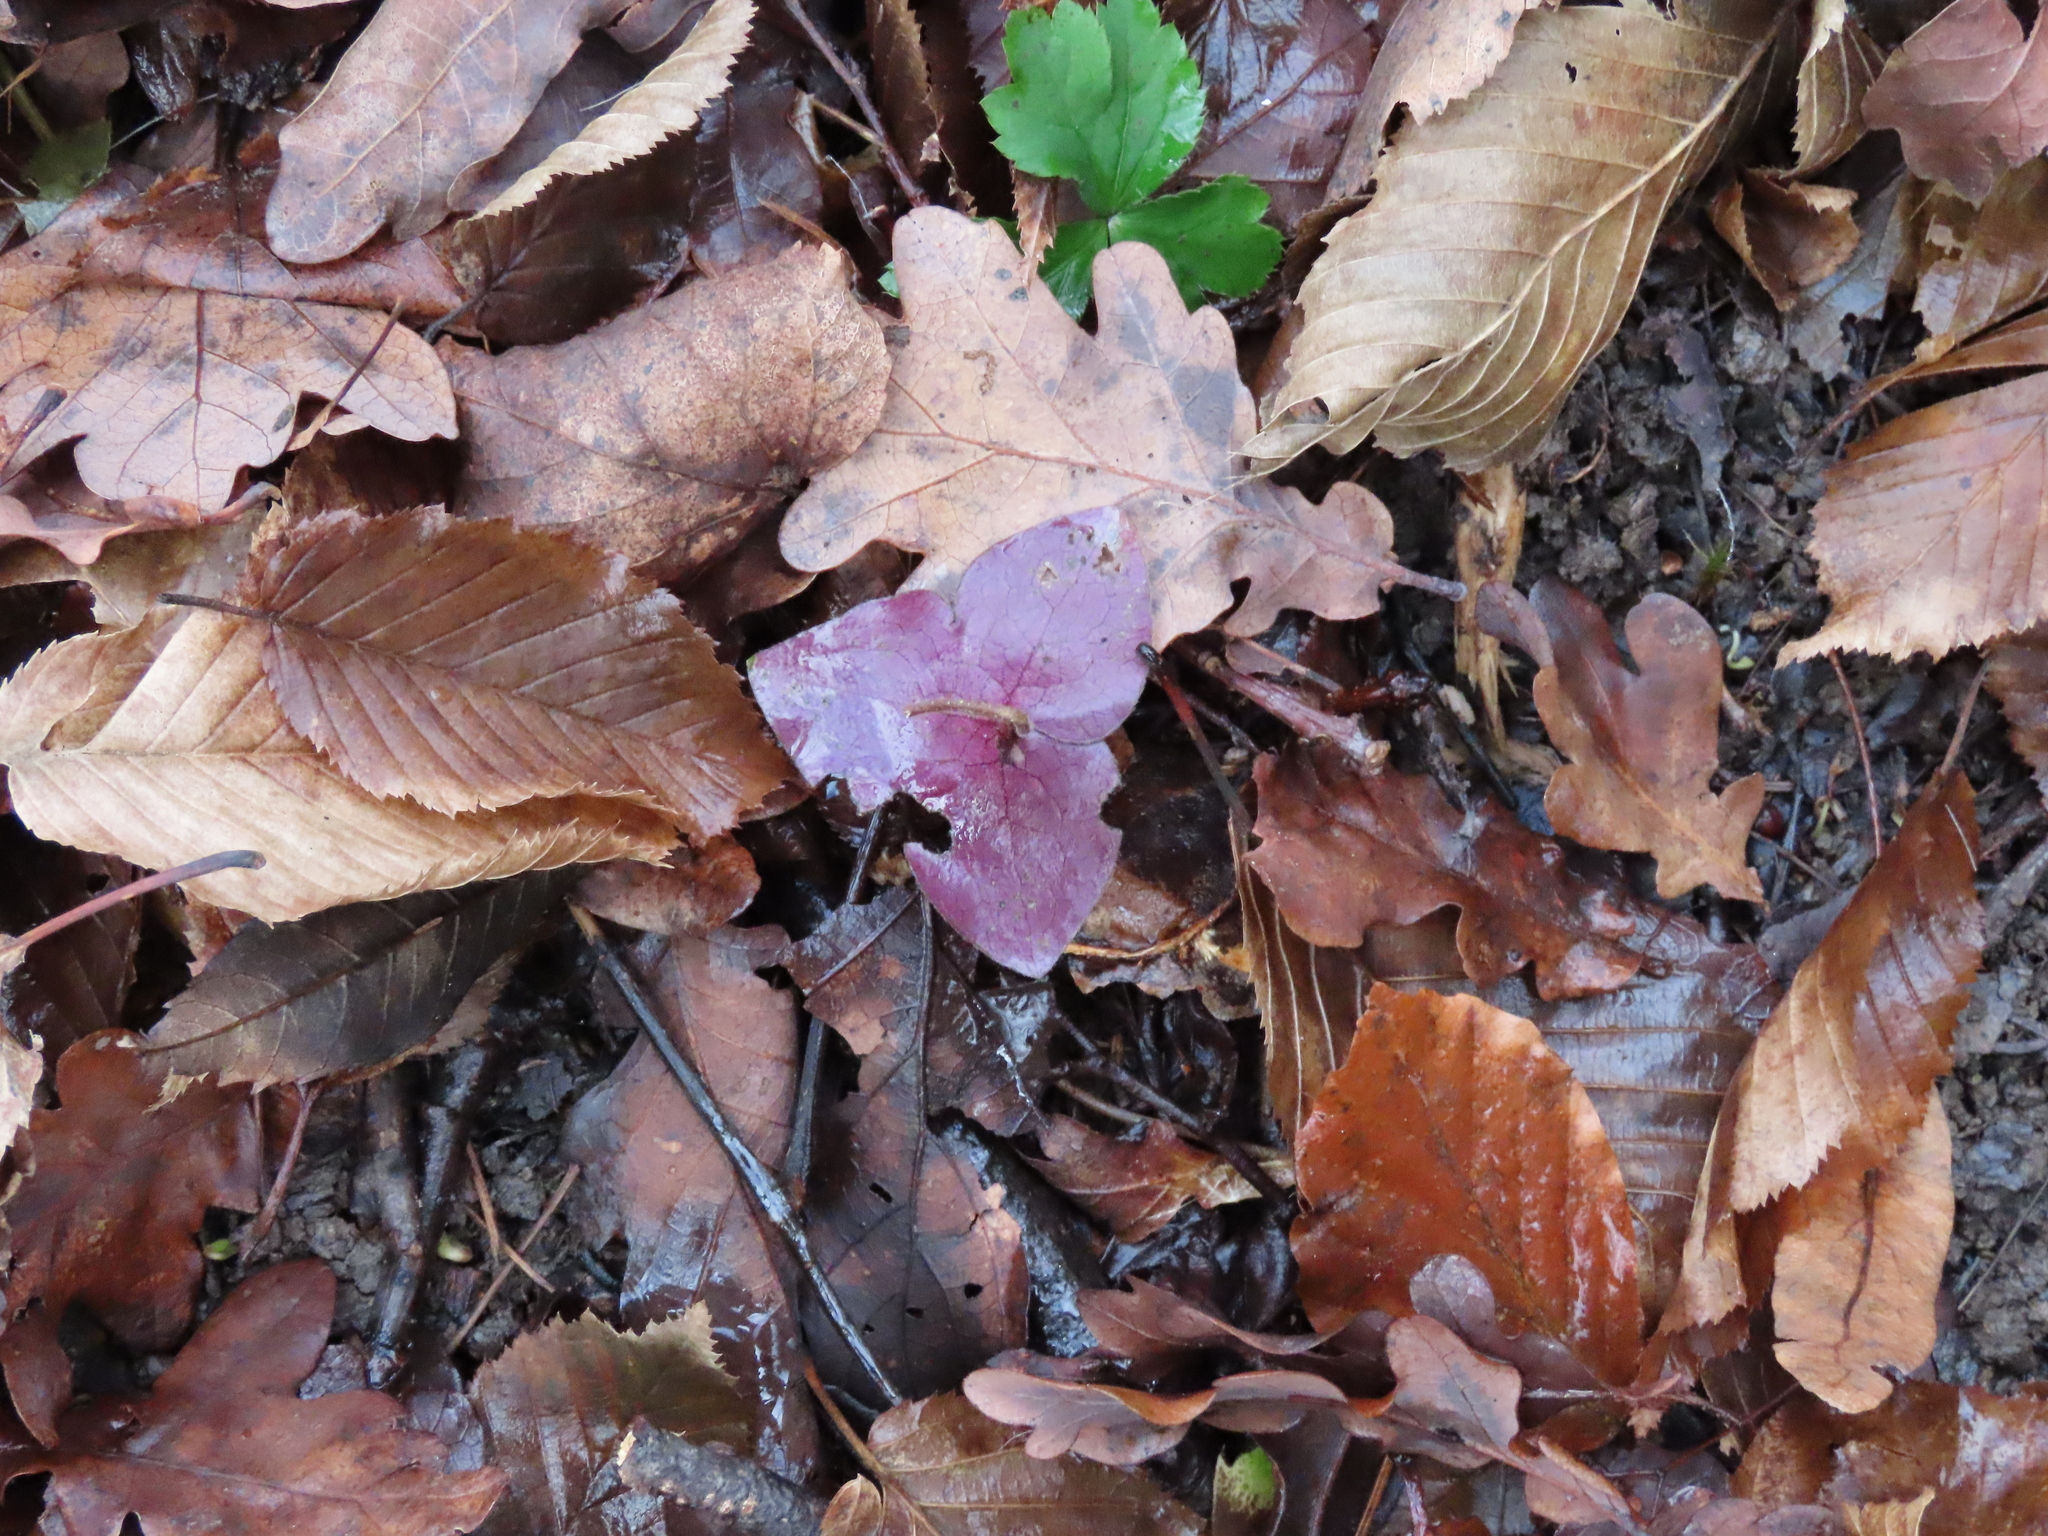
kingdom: Plantae
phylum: Tracheophyta
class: Magnoliopsida
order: Ranunculales
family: Ranunculaceae
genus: Hepatica
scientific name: Hepatica nobilis
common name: Liverleaf
